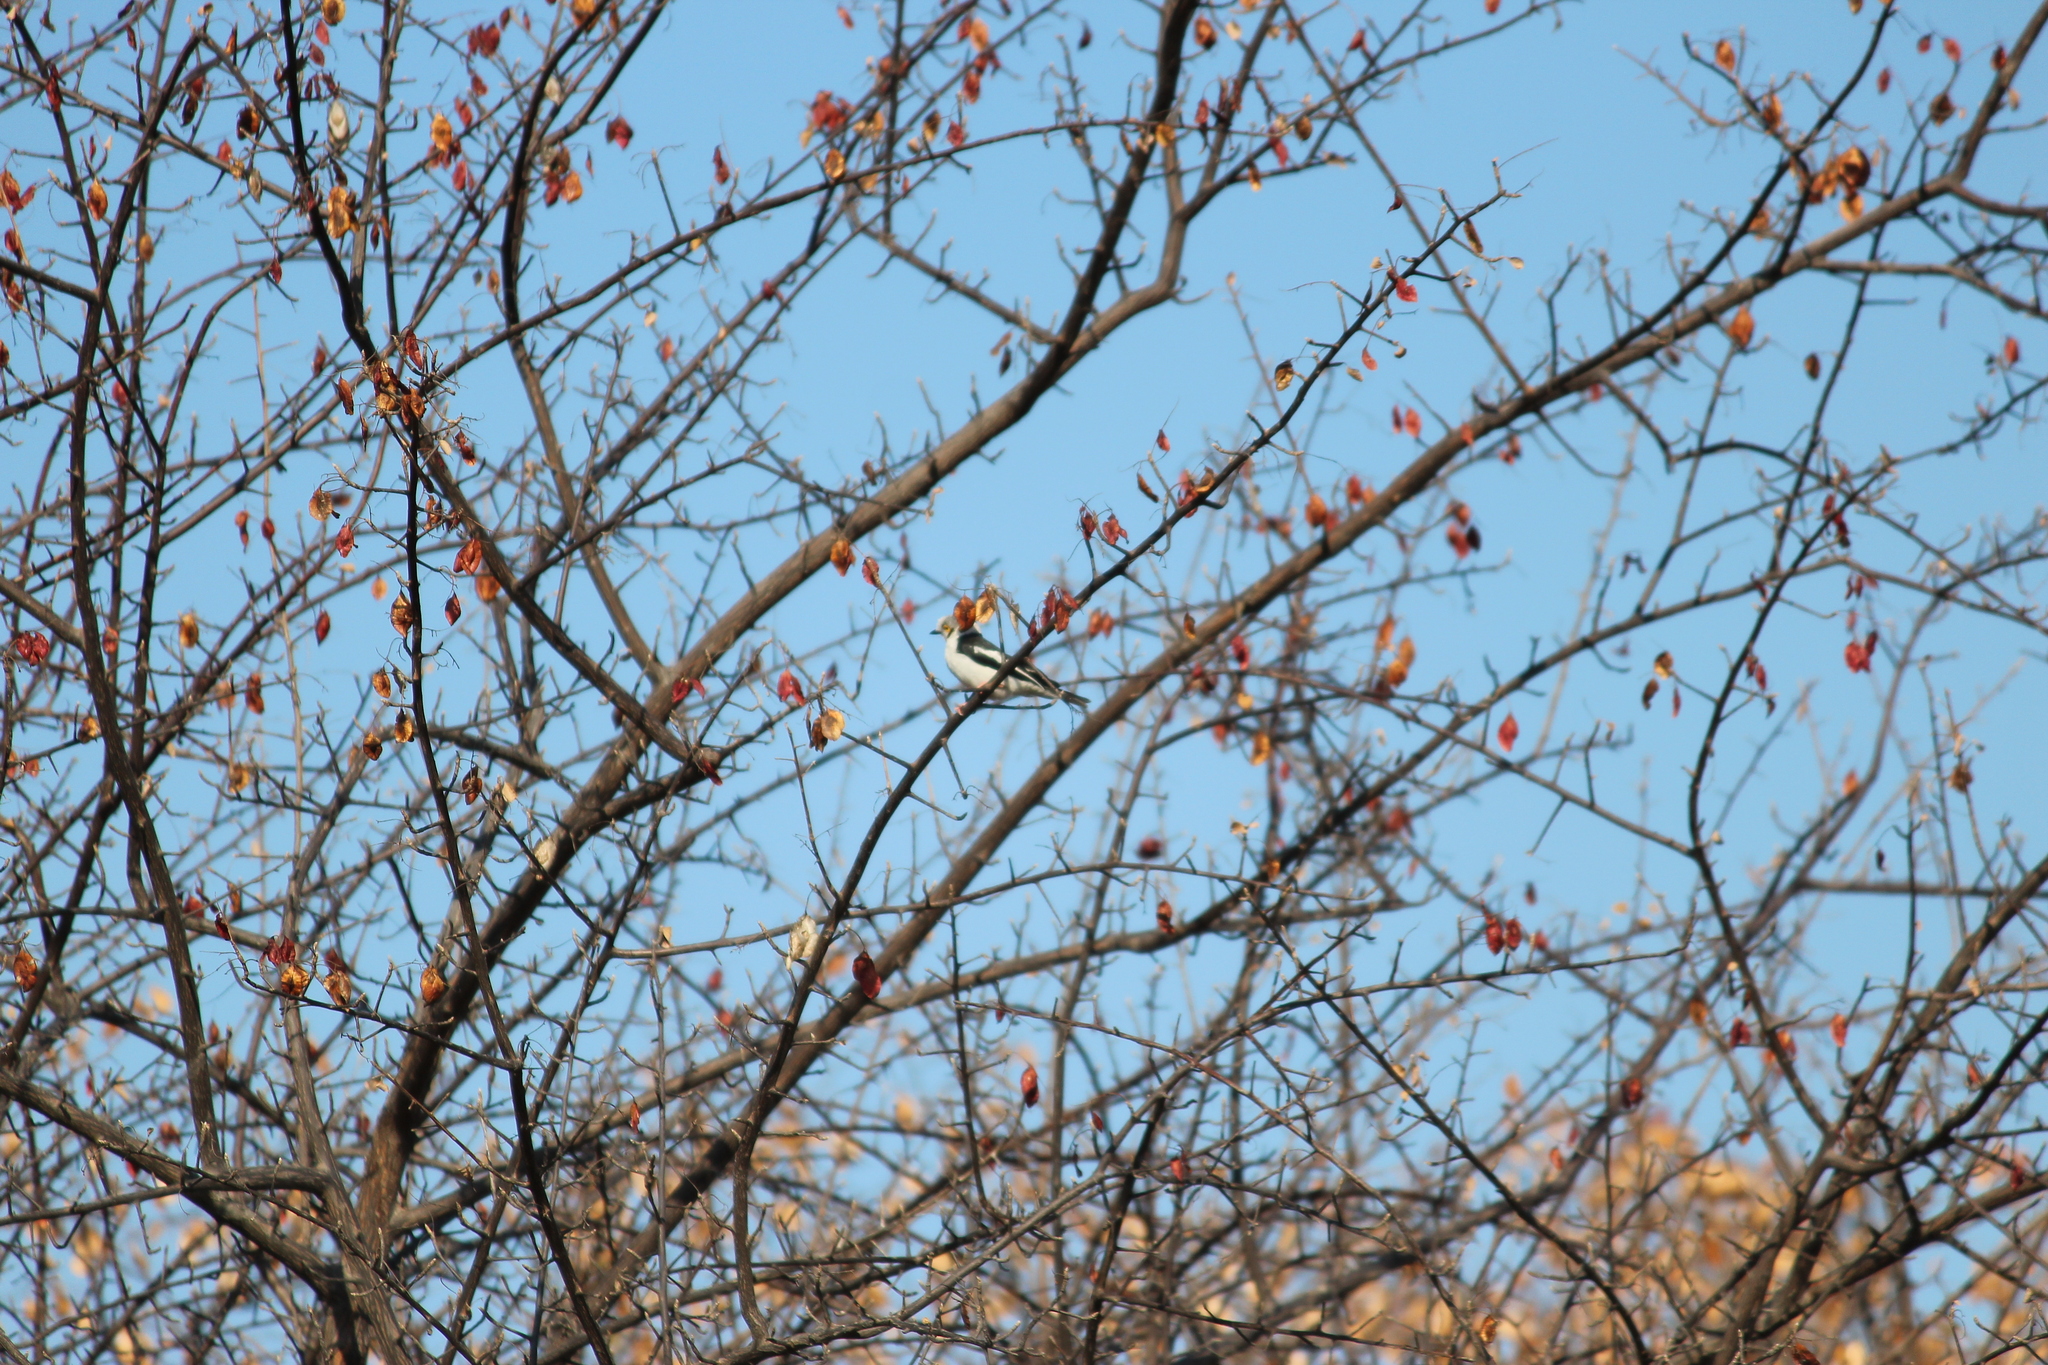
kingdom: Animalia
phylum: Chordata
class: Aves
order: Passeriformes
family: Prionopidae
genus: Prionops
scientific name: Prionops plumatus
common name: White-crested helmetshrike
